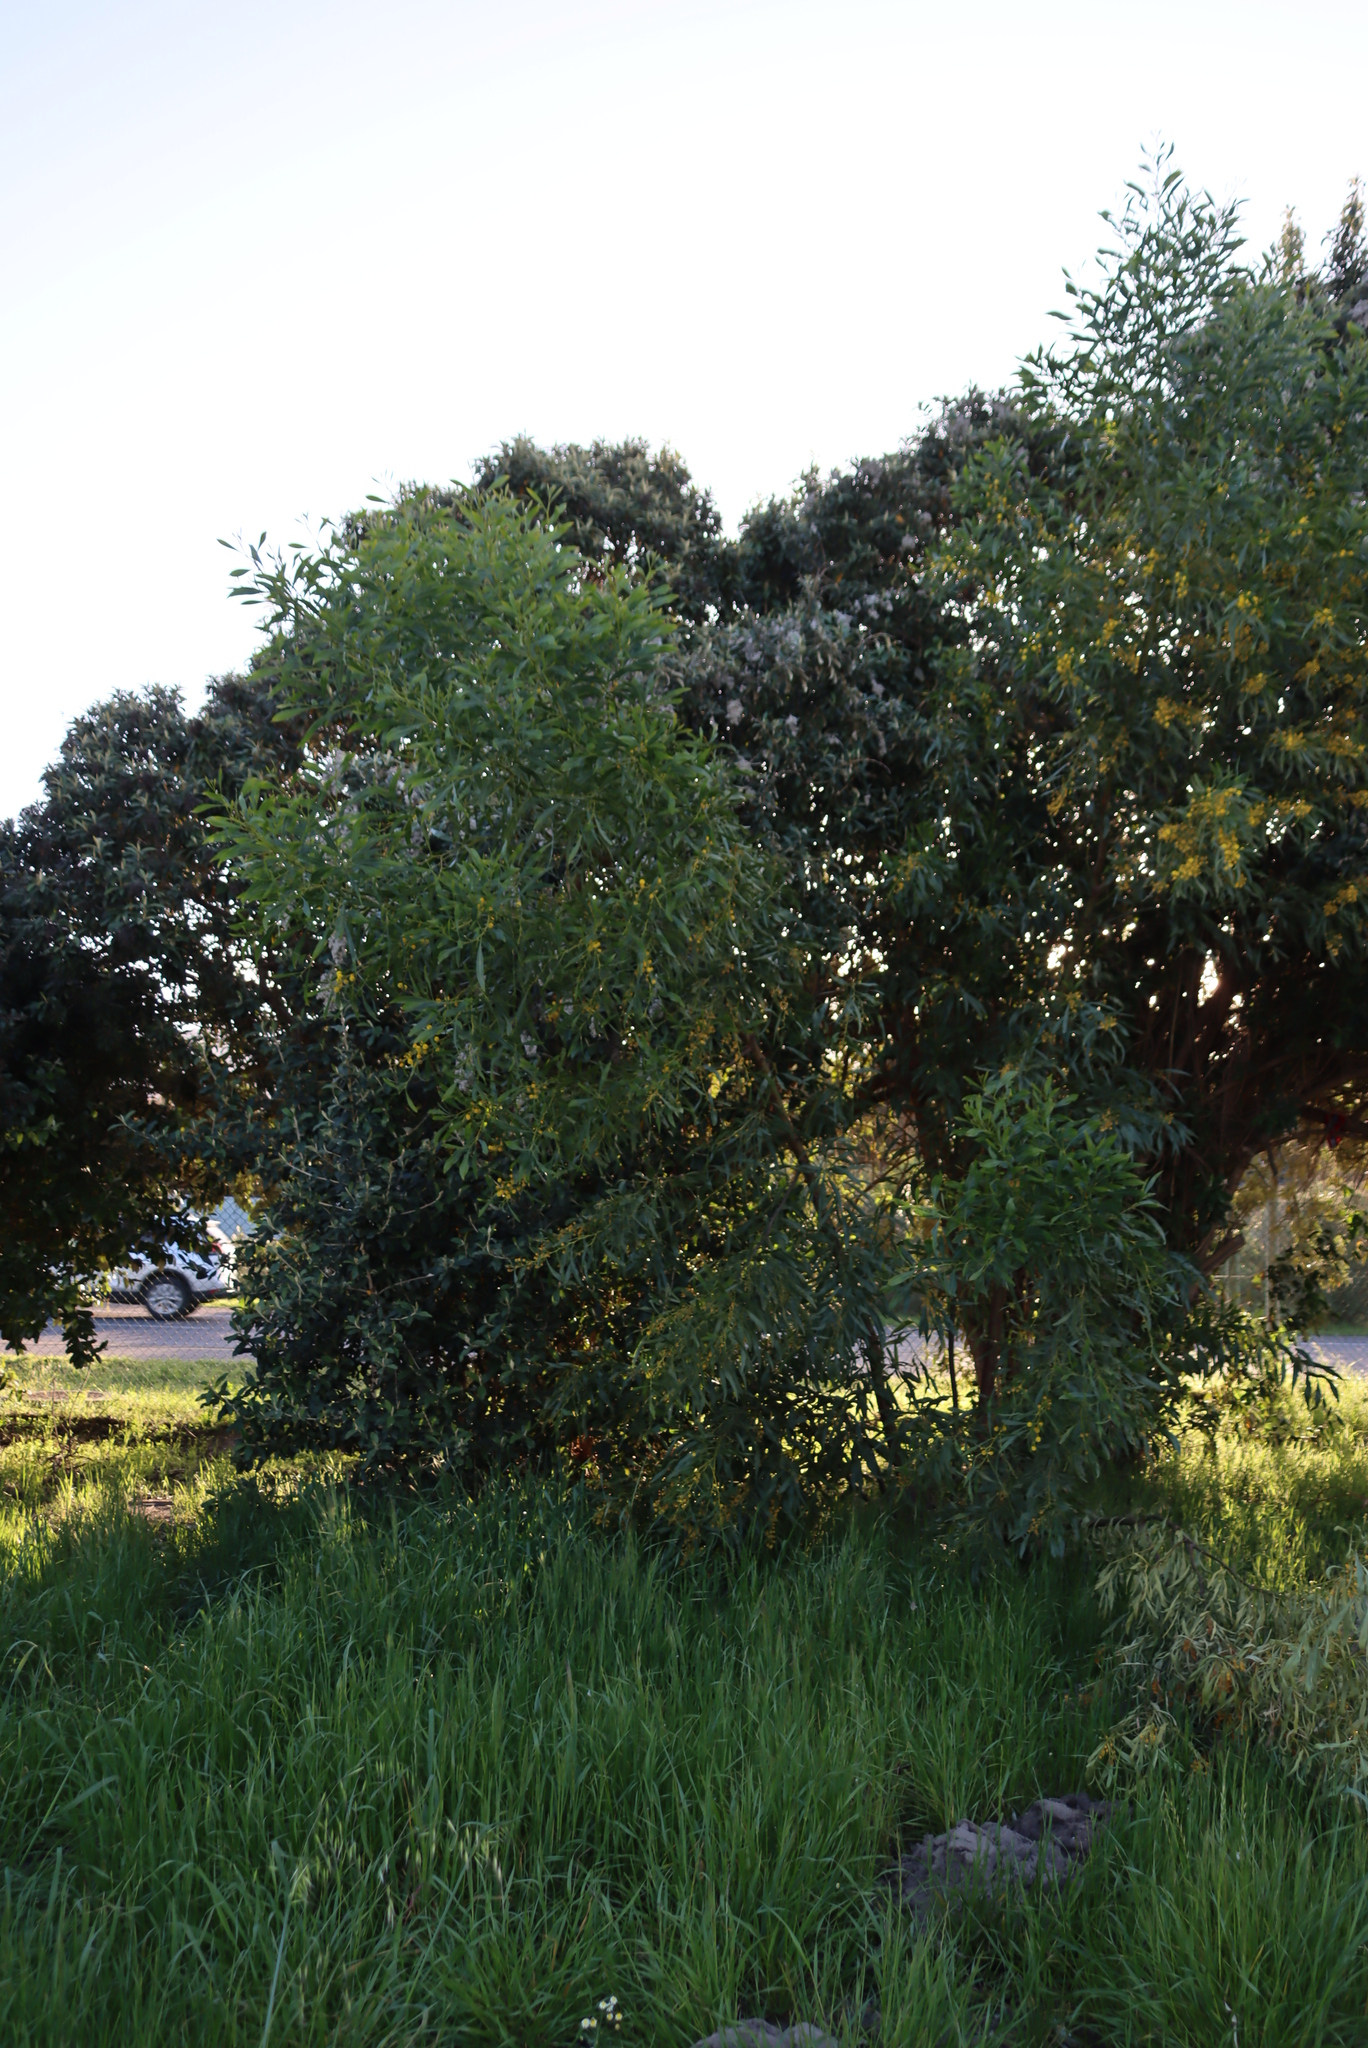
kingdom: Plantae
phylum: Tracheophyta
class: Magnoliopsida
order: Fabales
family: Fabaceae
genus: Acacia
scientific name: Acacia saligna
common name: Orange wattle
